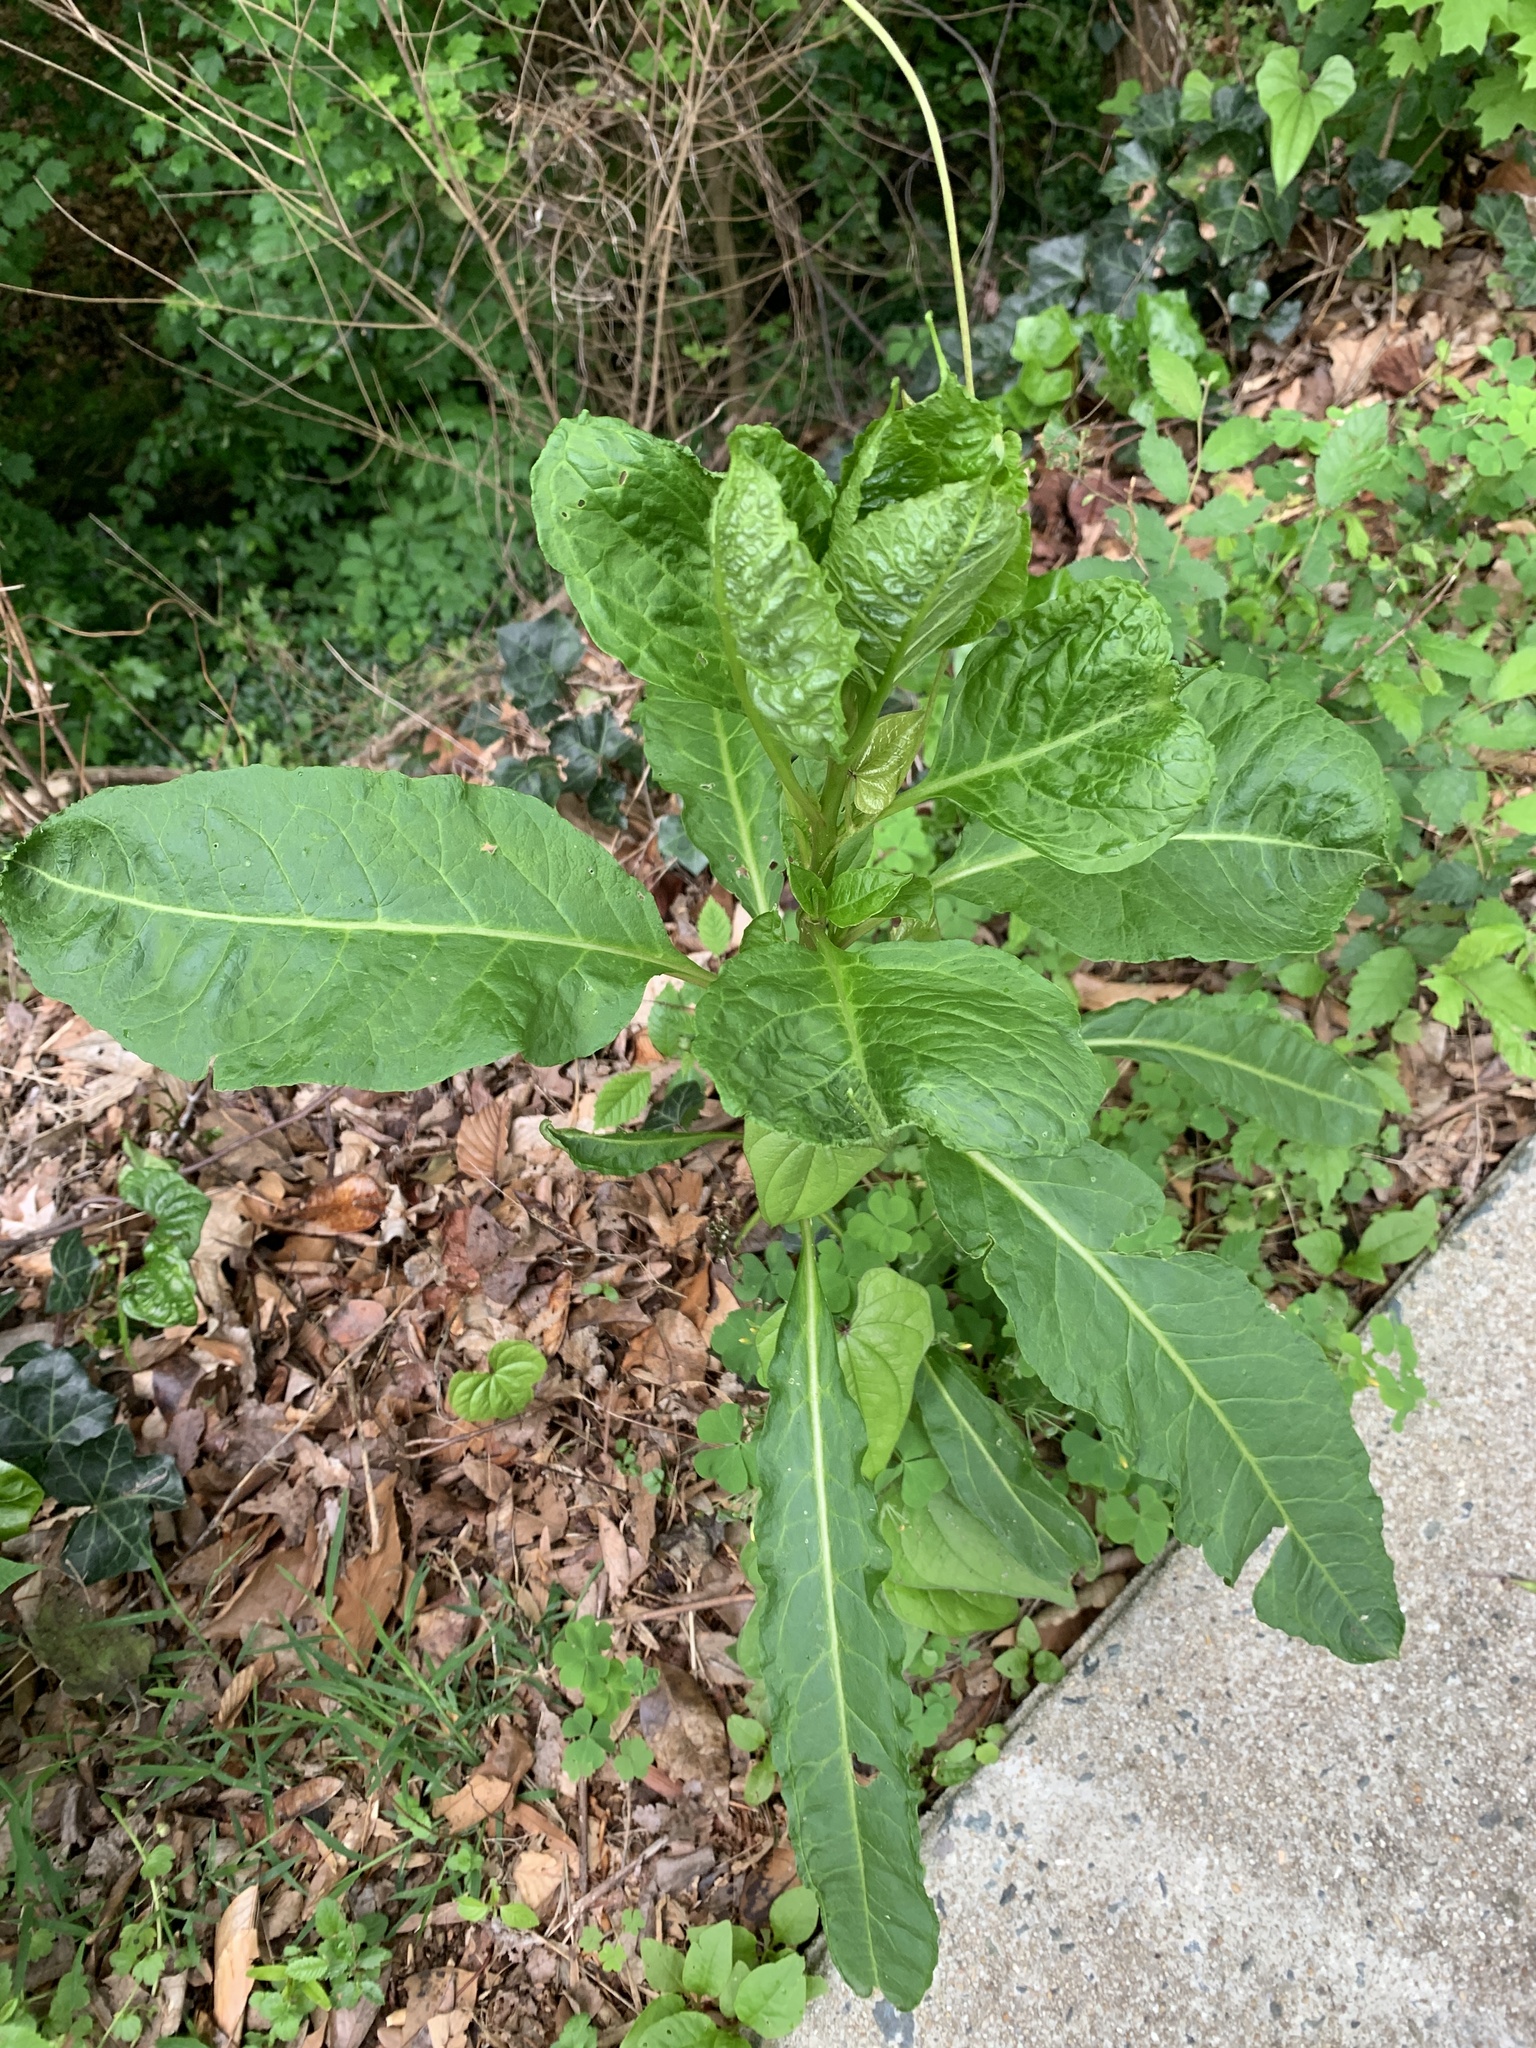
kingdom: Plantae
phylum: Tracheophyta
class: Magnoliopsida
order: Caryophyllales
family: Phytolaccaceae
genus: Phytolacca
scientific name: Phytolacca americana
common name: American pokeweed
